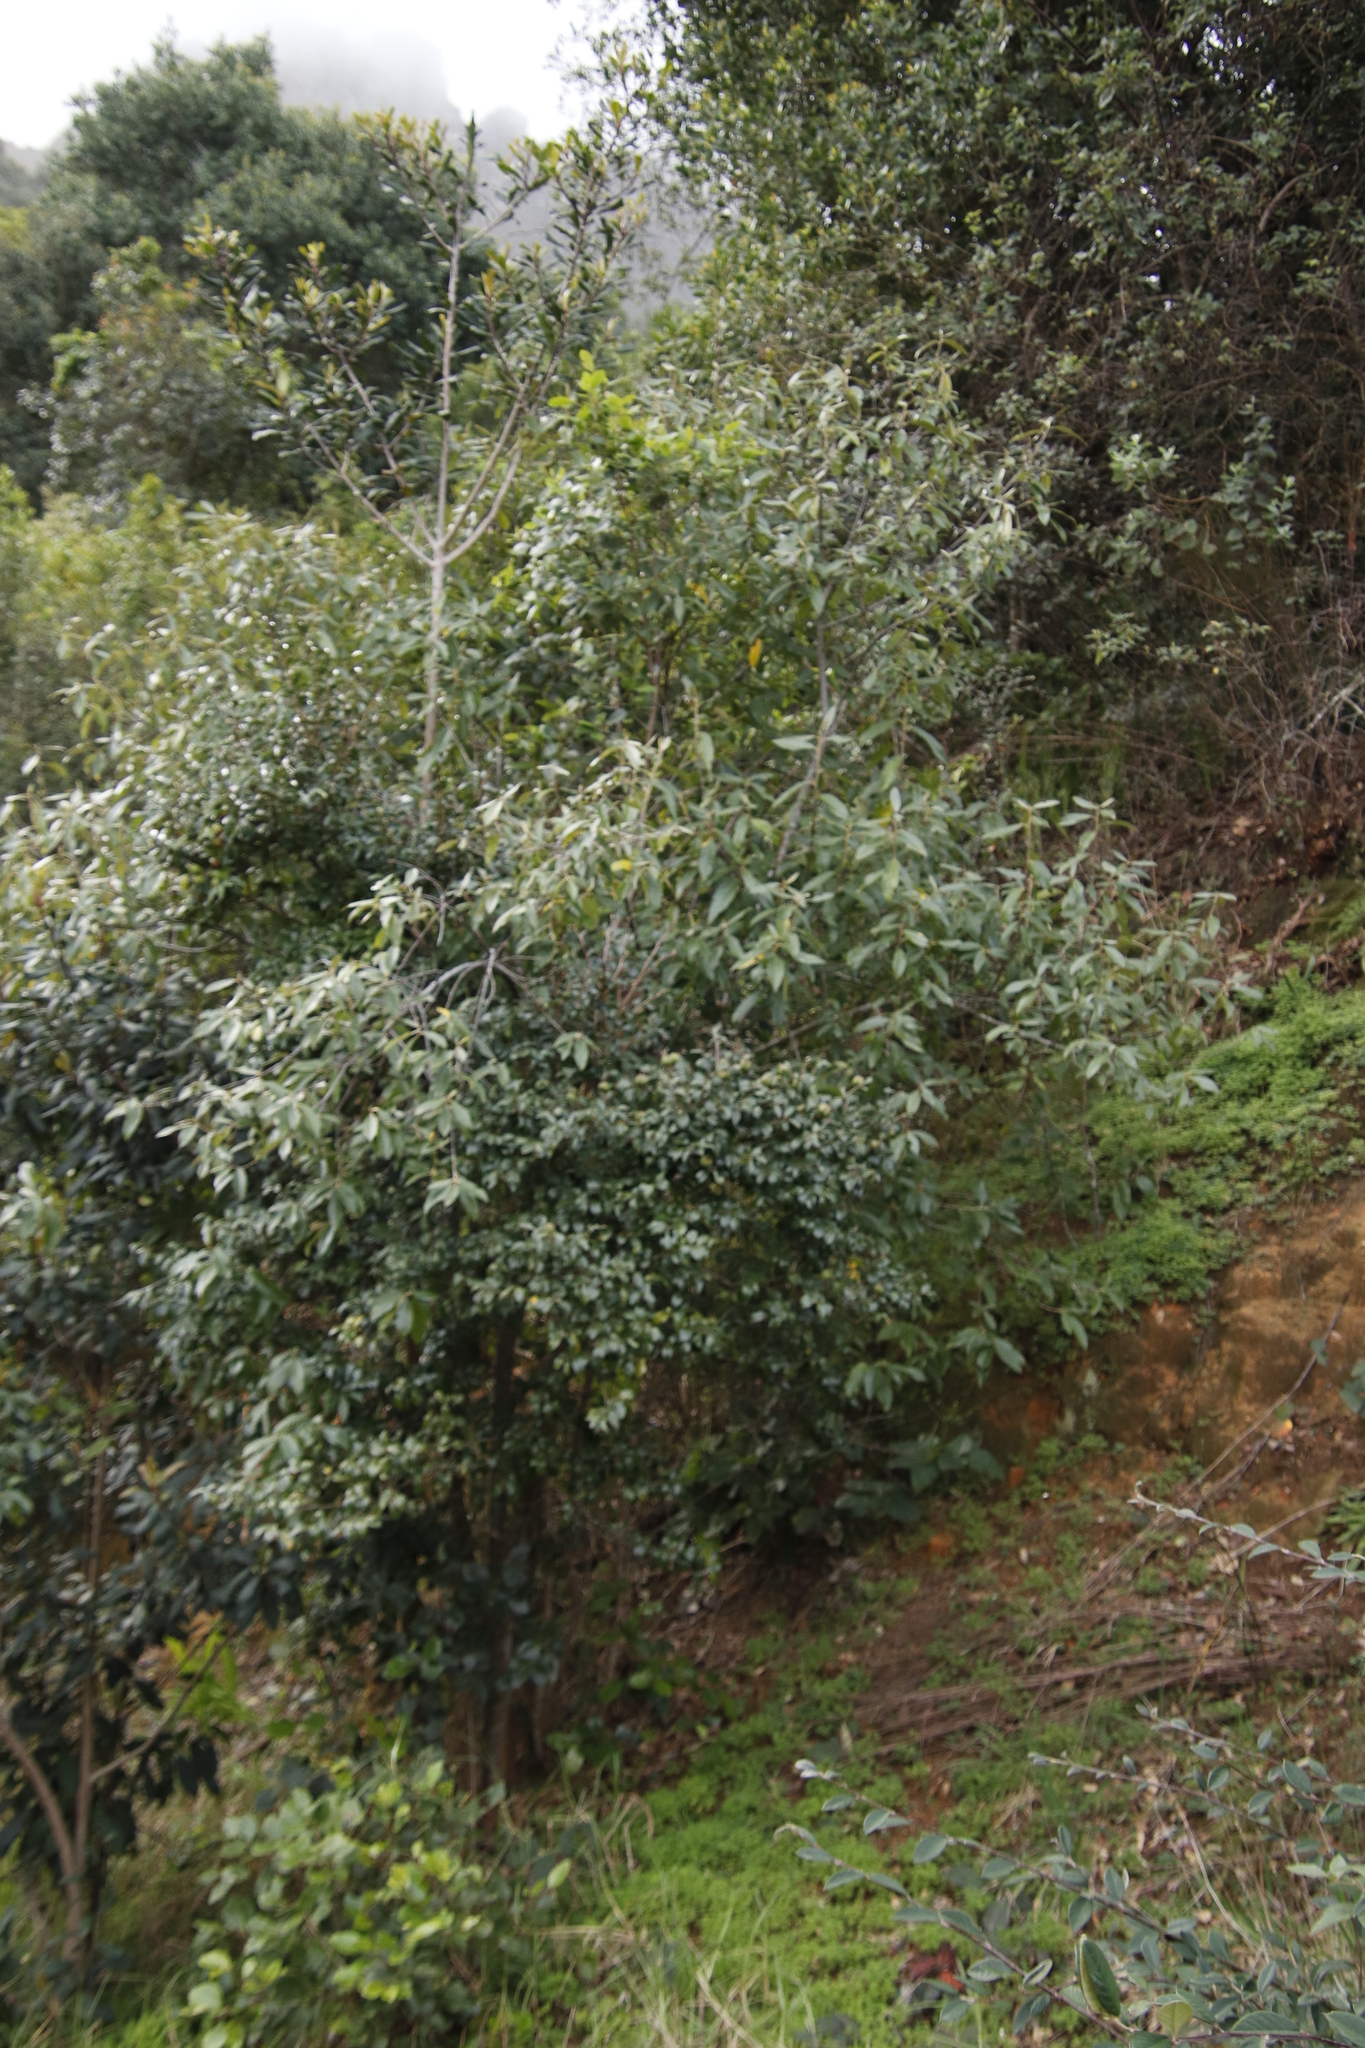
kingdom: Plantae
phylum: Tracheophyta
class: Magnoliopsida
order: Ericales
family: Ebenaceae
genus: Diospyros
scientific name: Diospyros whyteana
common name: Bladder-nut
